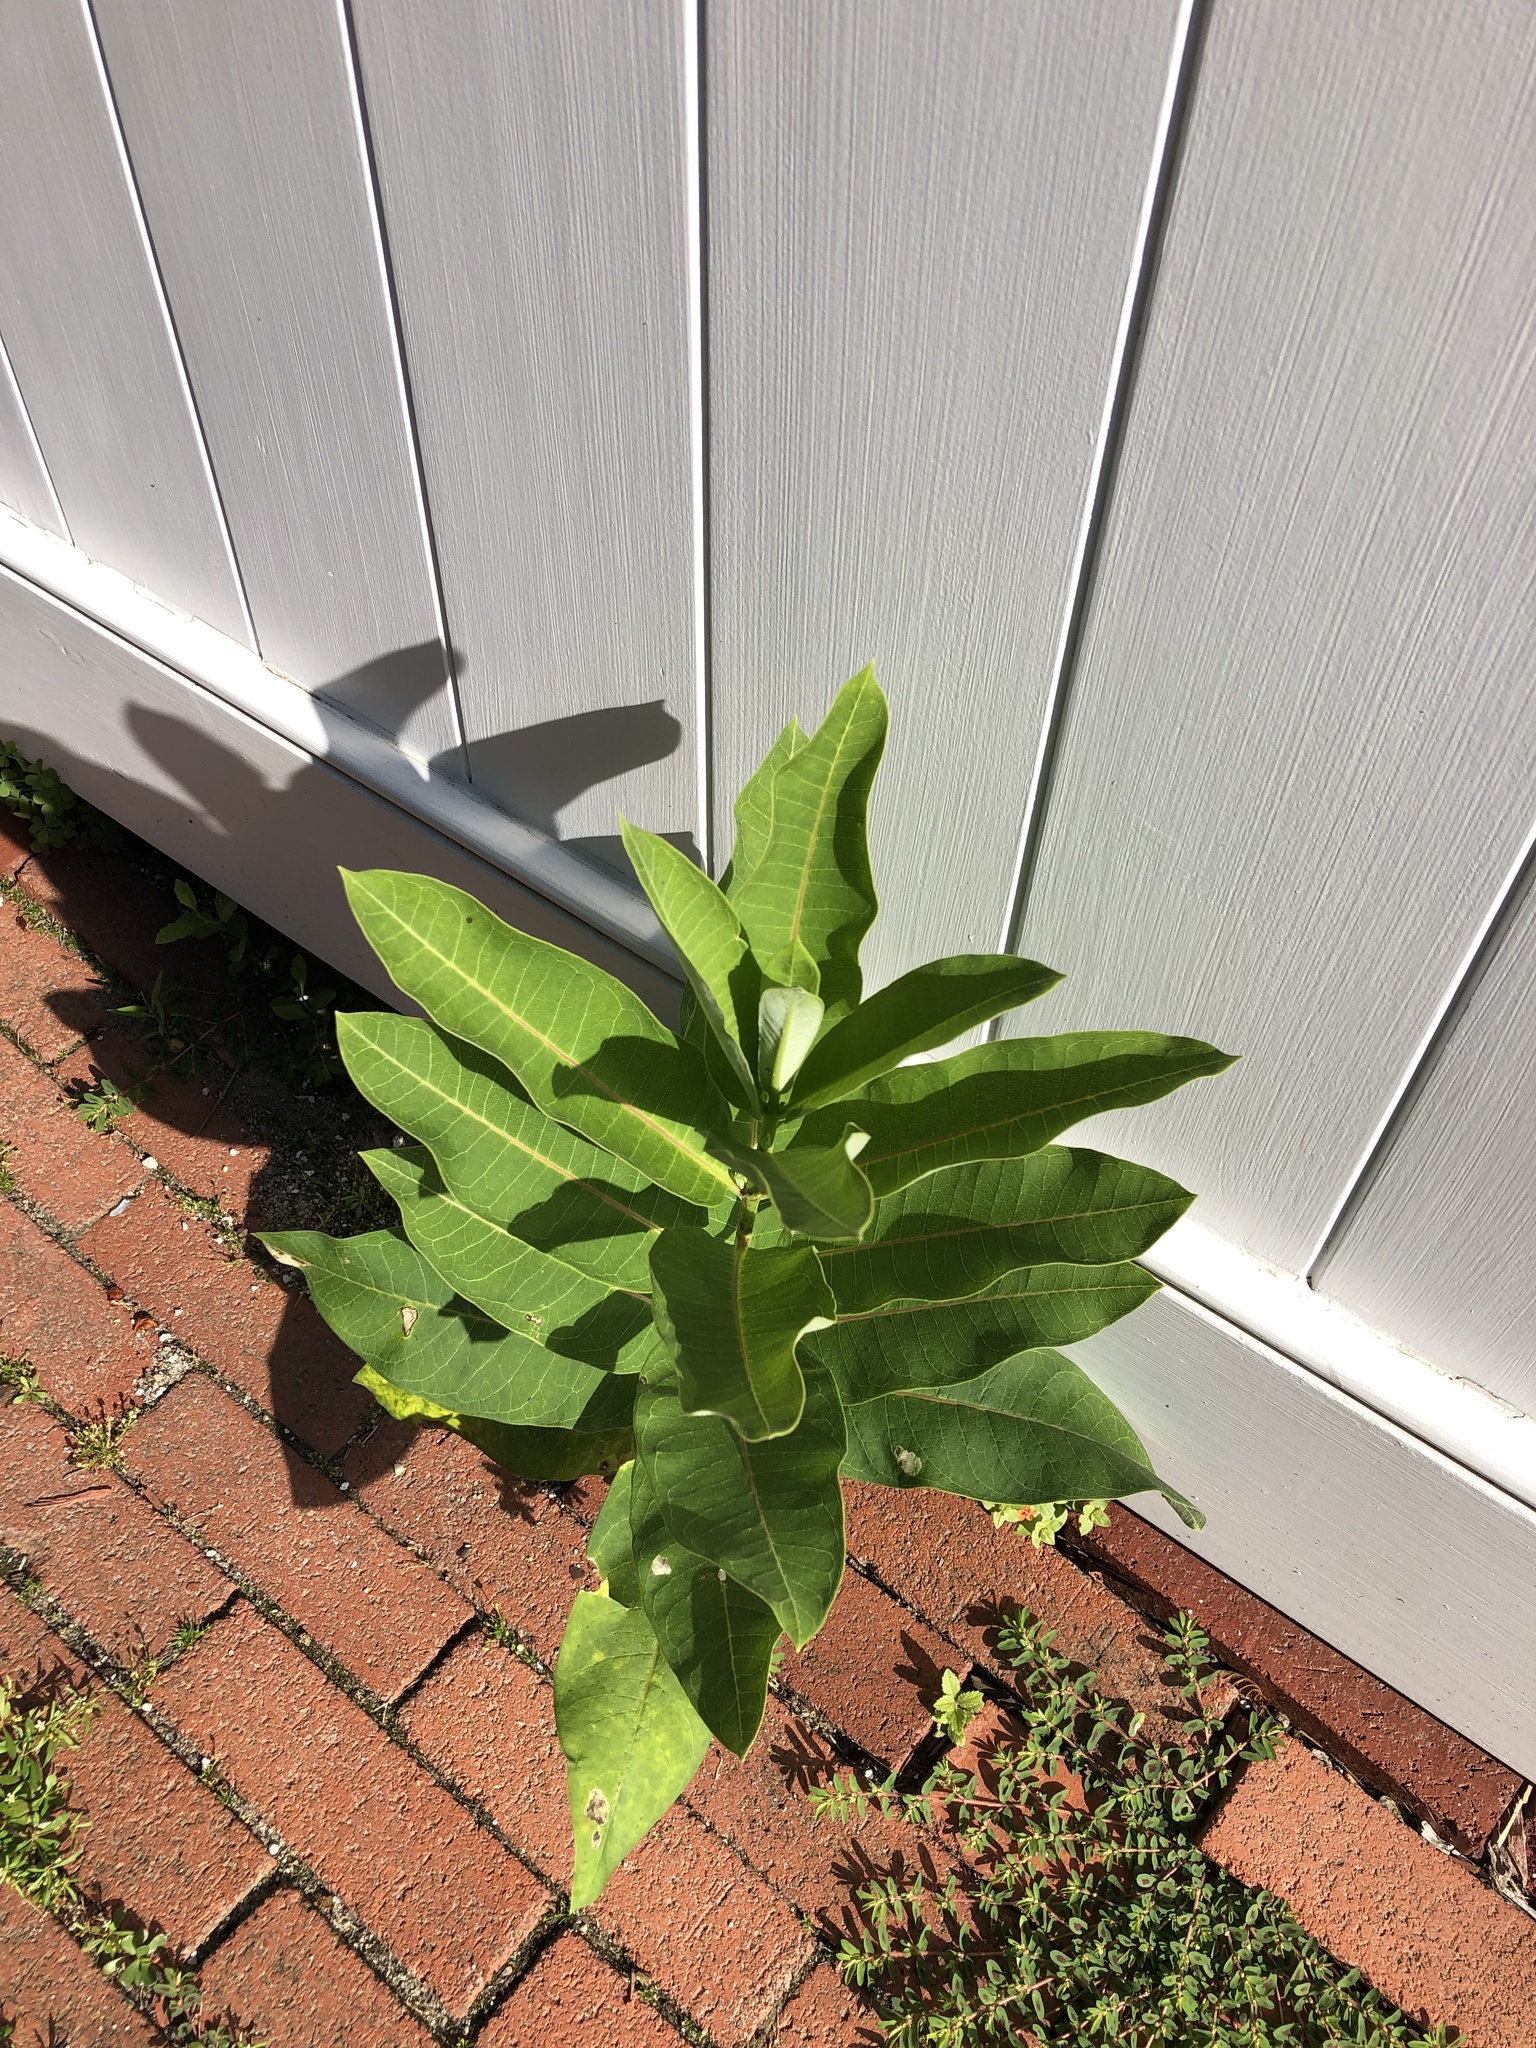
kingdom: Plantae
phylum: Tracheophyta
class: Magnoliopsida
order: Gentianales
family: Apocynaceae
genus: Asclepias
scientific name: Asclepias syriaca
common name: Common milkweed
